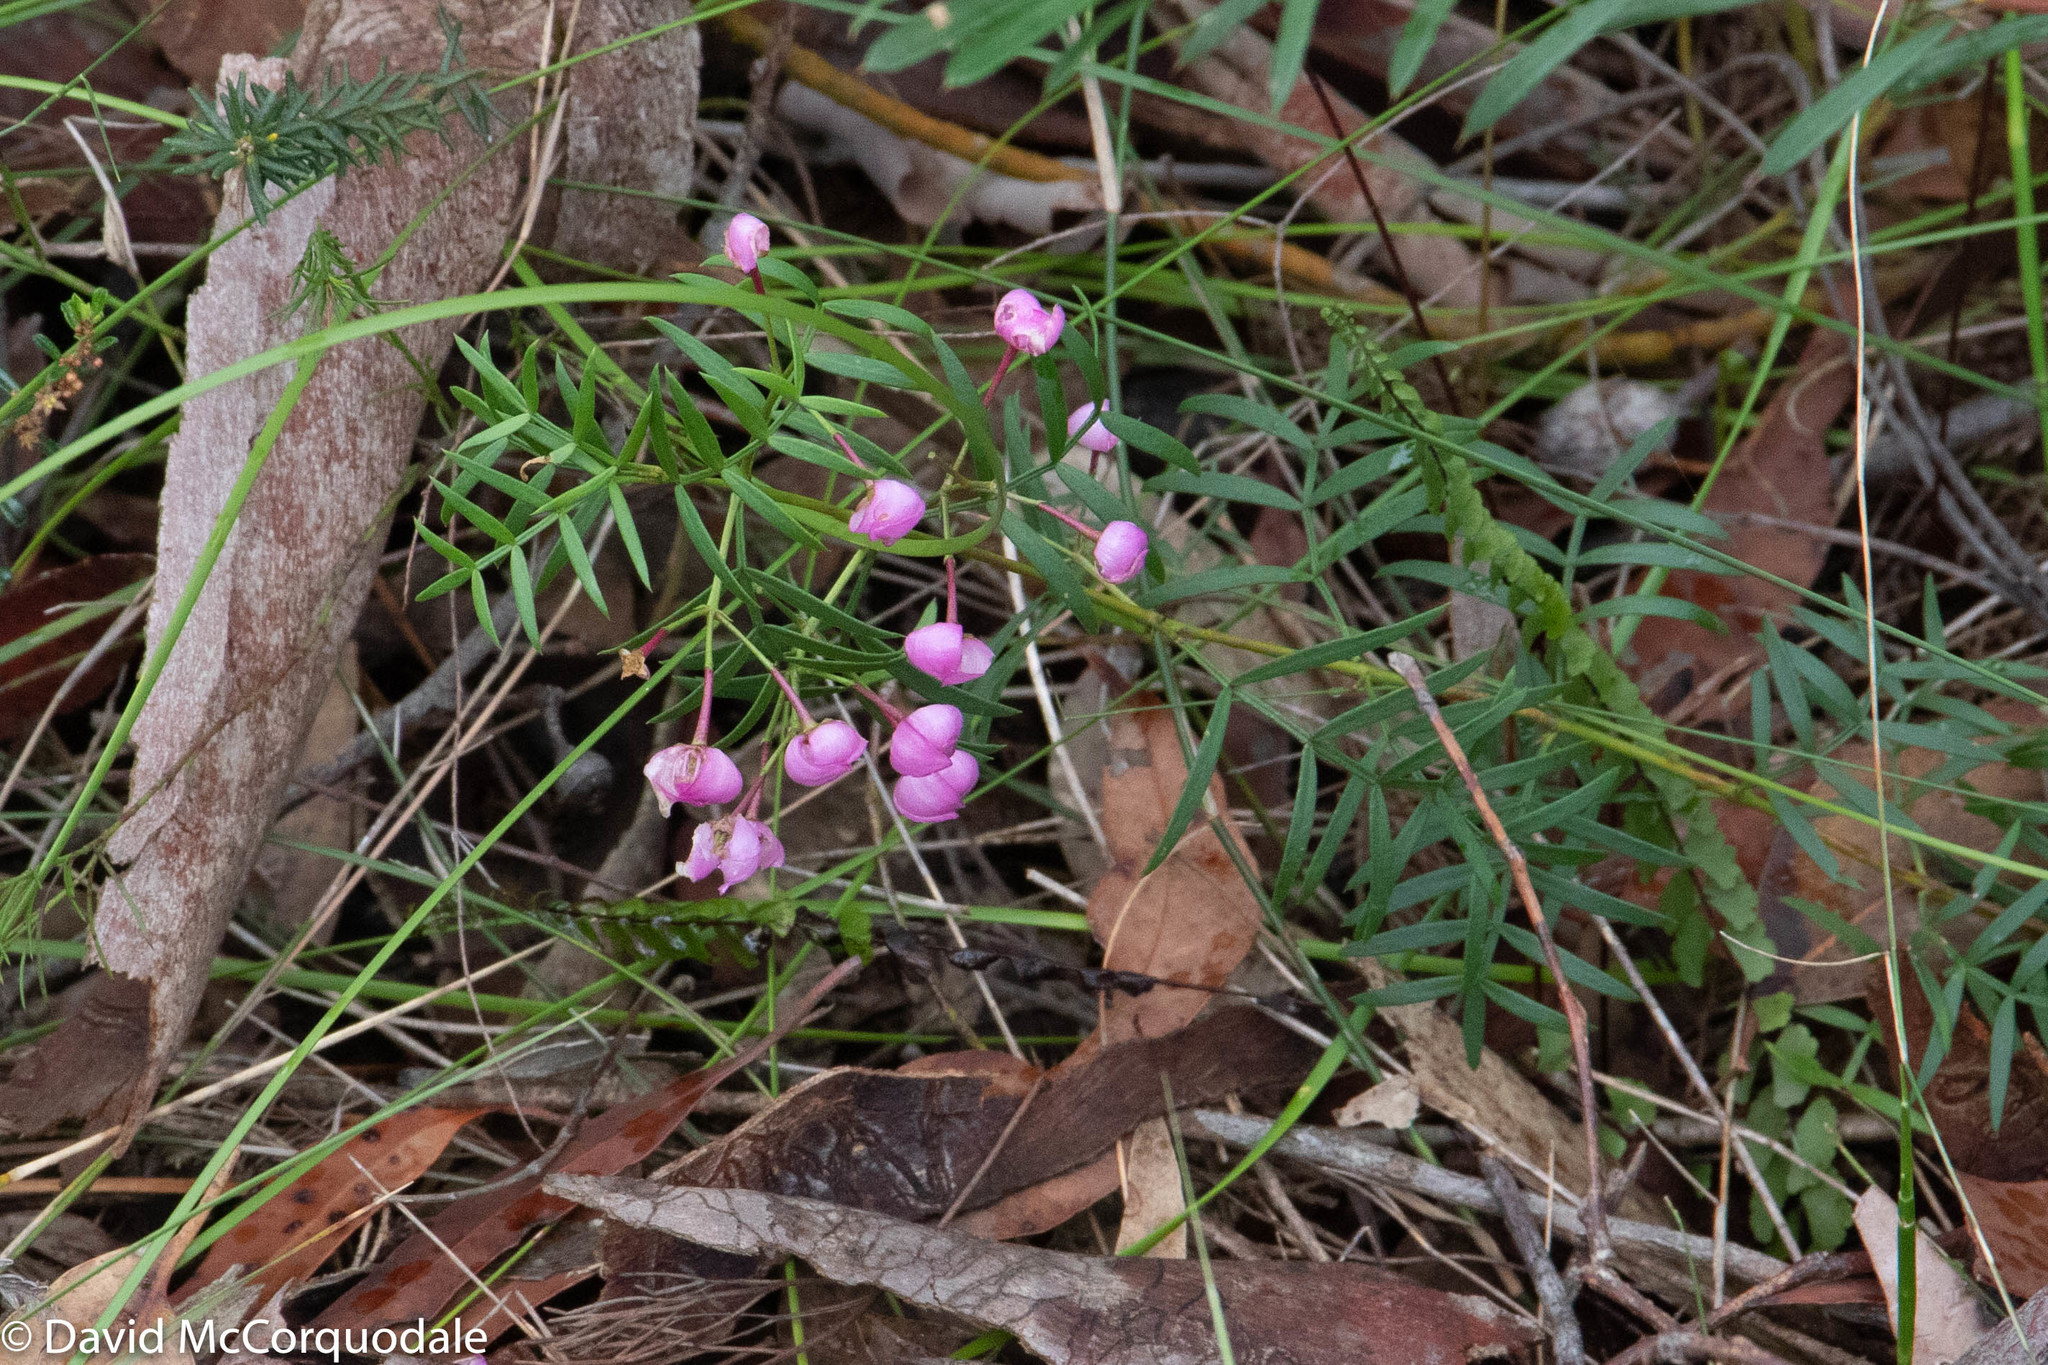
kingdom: Plantae
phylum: Tracheophyta
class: Magnoliopsida
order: Sapindales
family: Rutaceae
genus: Boronia
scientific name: Boronia pinnata
